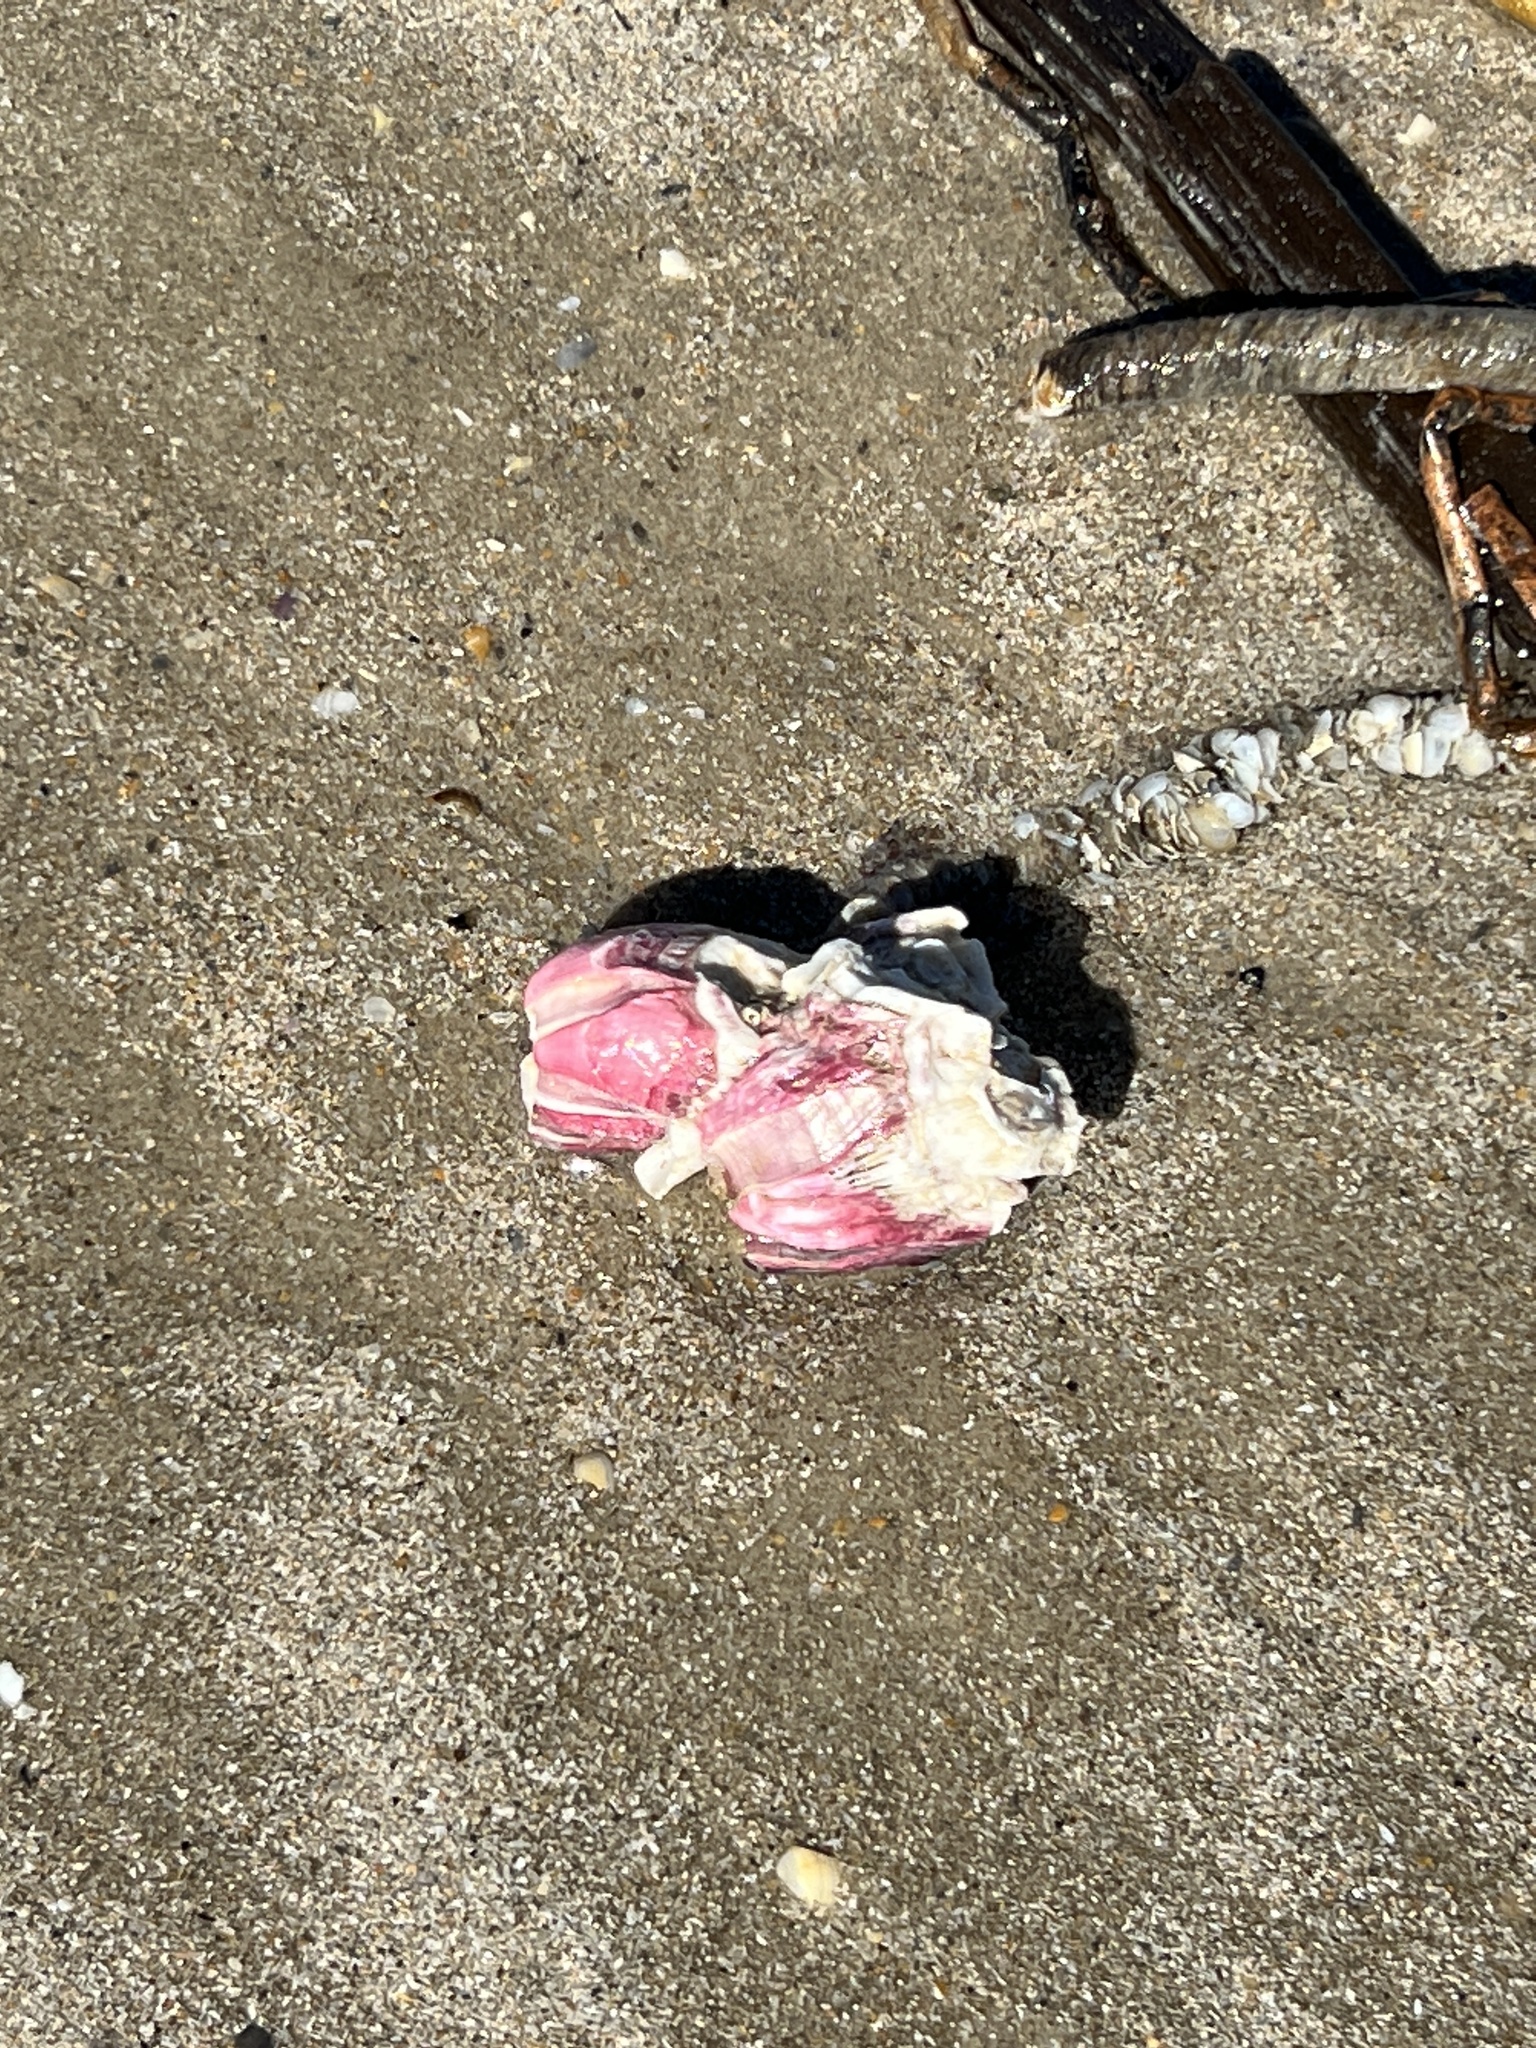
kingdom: Animalia
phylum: Arthropoda
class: Maxillopoda
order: Sessilia
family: Balanidae
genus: Megabalanus
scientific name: Megabalanus tintinnabulum
